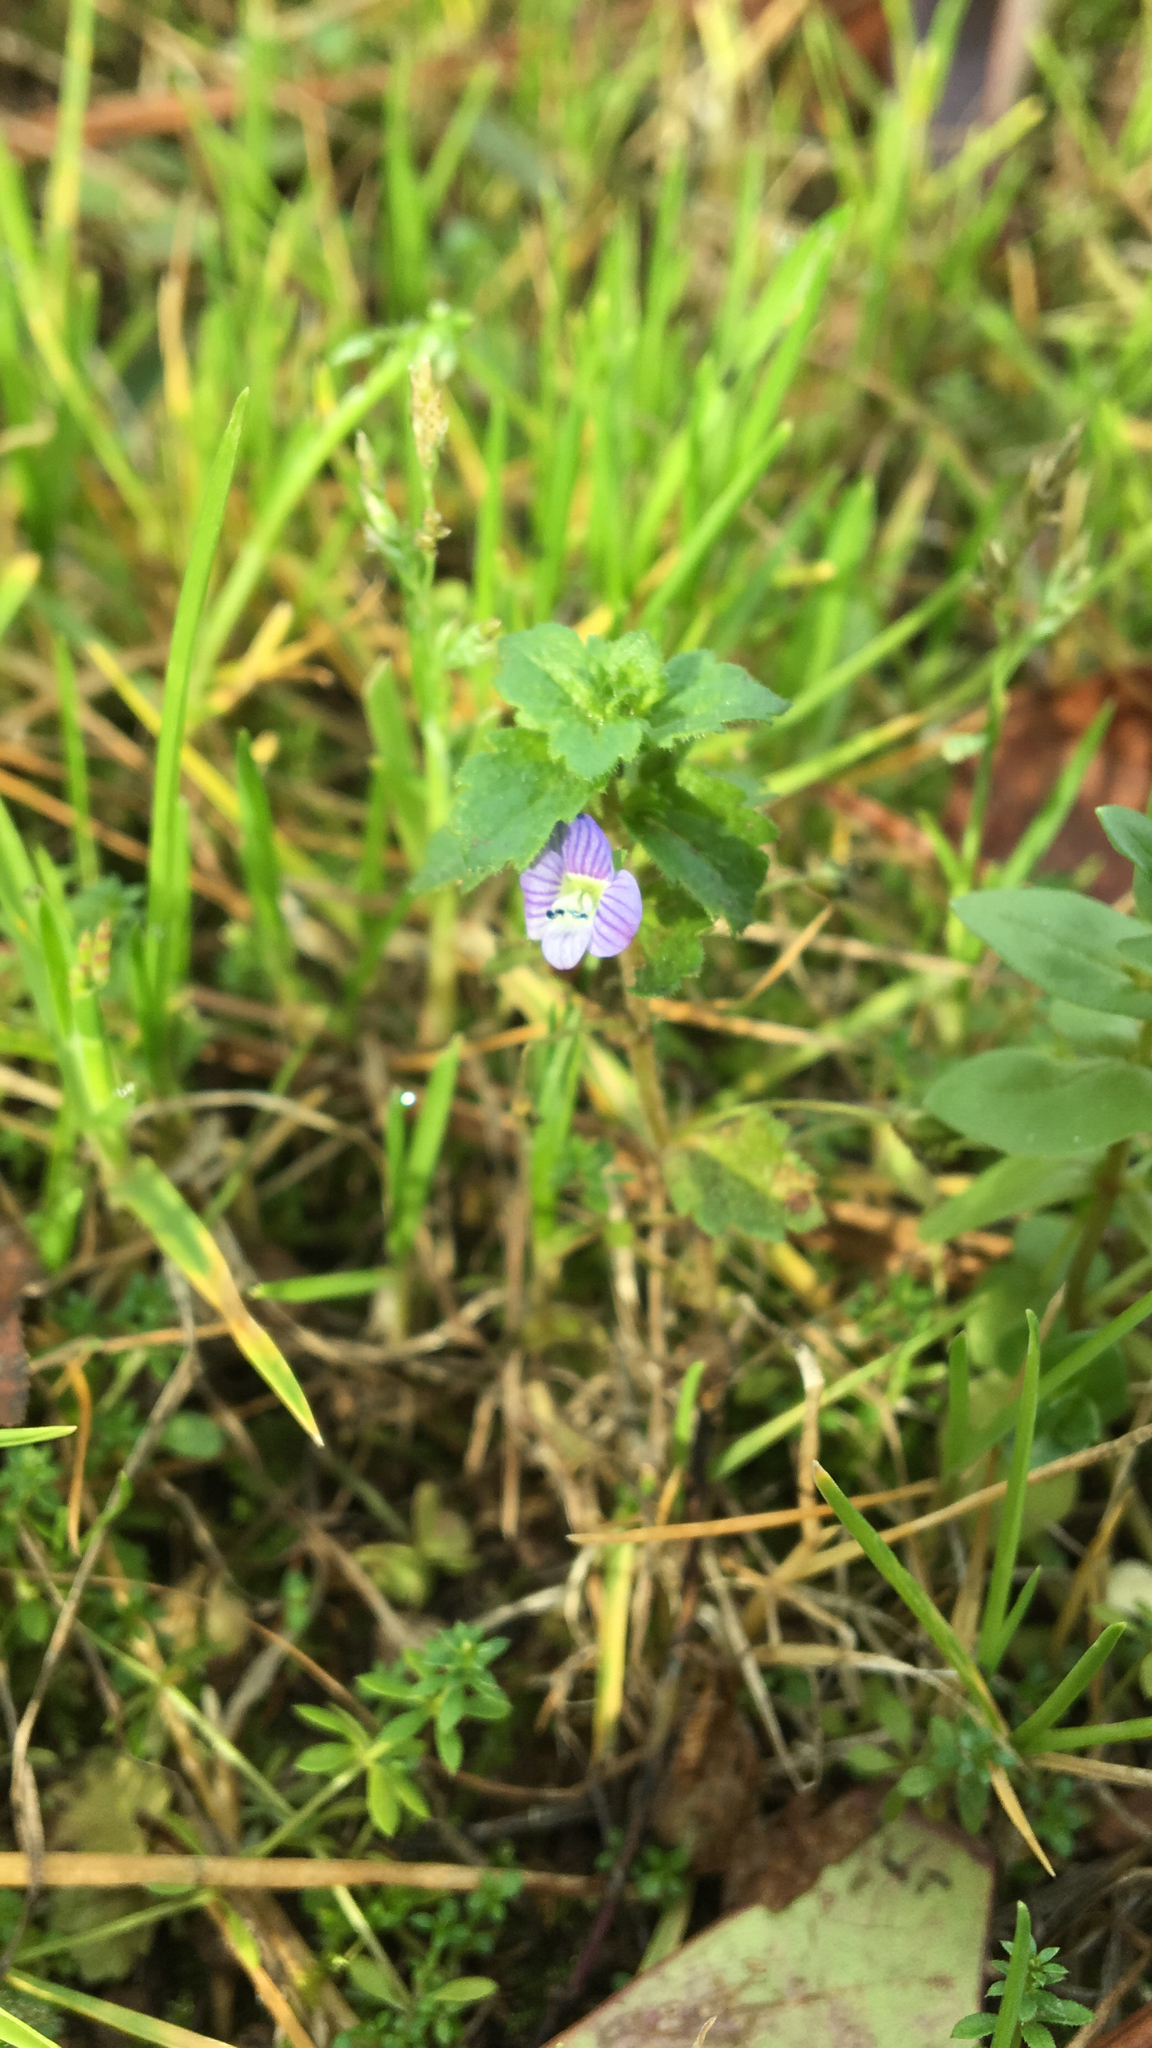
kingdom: Plantae
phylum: Tracheophyta
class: Magnoliopsida
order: Lamiales
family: Plantaginaceae
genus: Veronica
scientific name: Veronica persica
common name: Common field-speedwell
